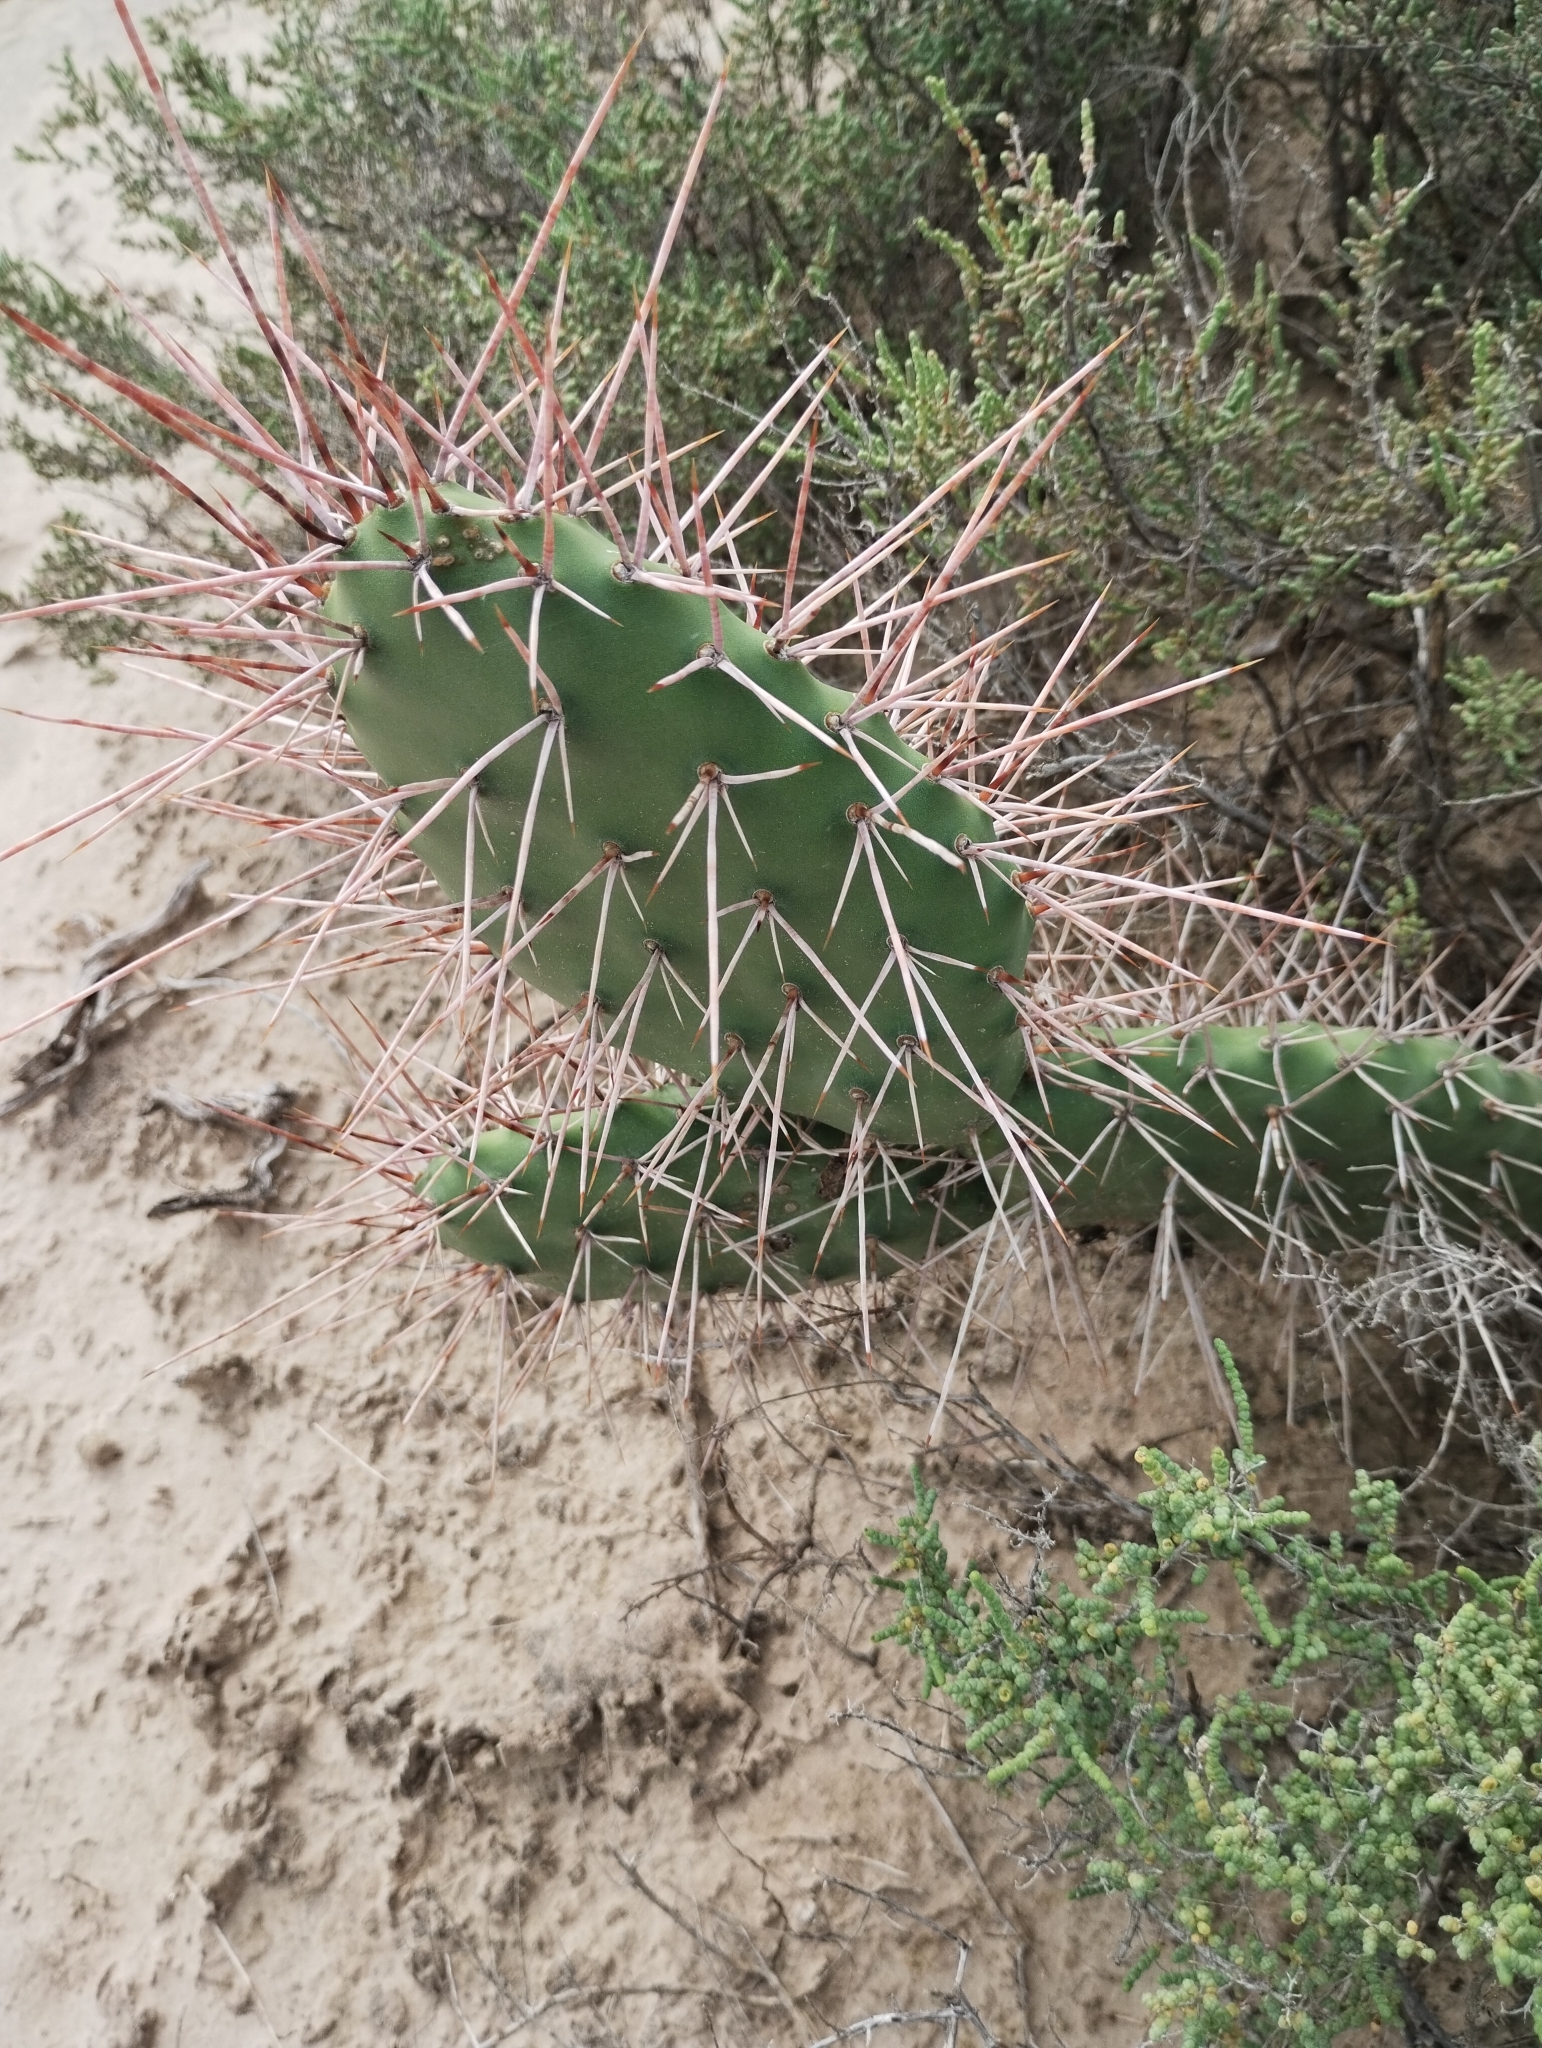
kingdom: Plantae
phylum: Tracheophyta
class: Magnoliopsida
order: Caryophyllales
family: Cactaceae
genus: Opuntia
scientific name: Opuntia sulphurea
